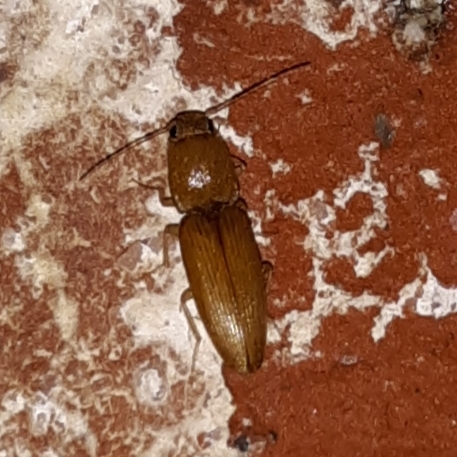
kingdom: Animalia
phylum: Arthropoda
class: Insecta
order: Coleoptera
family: Elateridae
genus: Monocrepidius
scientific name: Monocrepidius scissus
